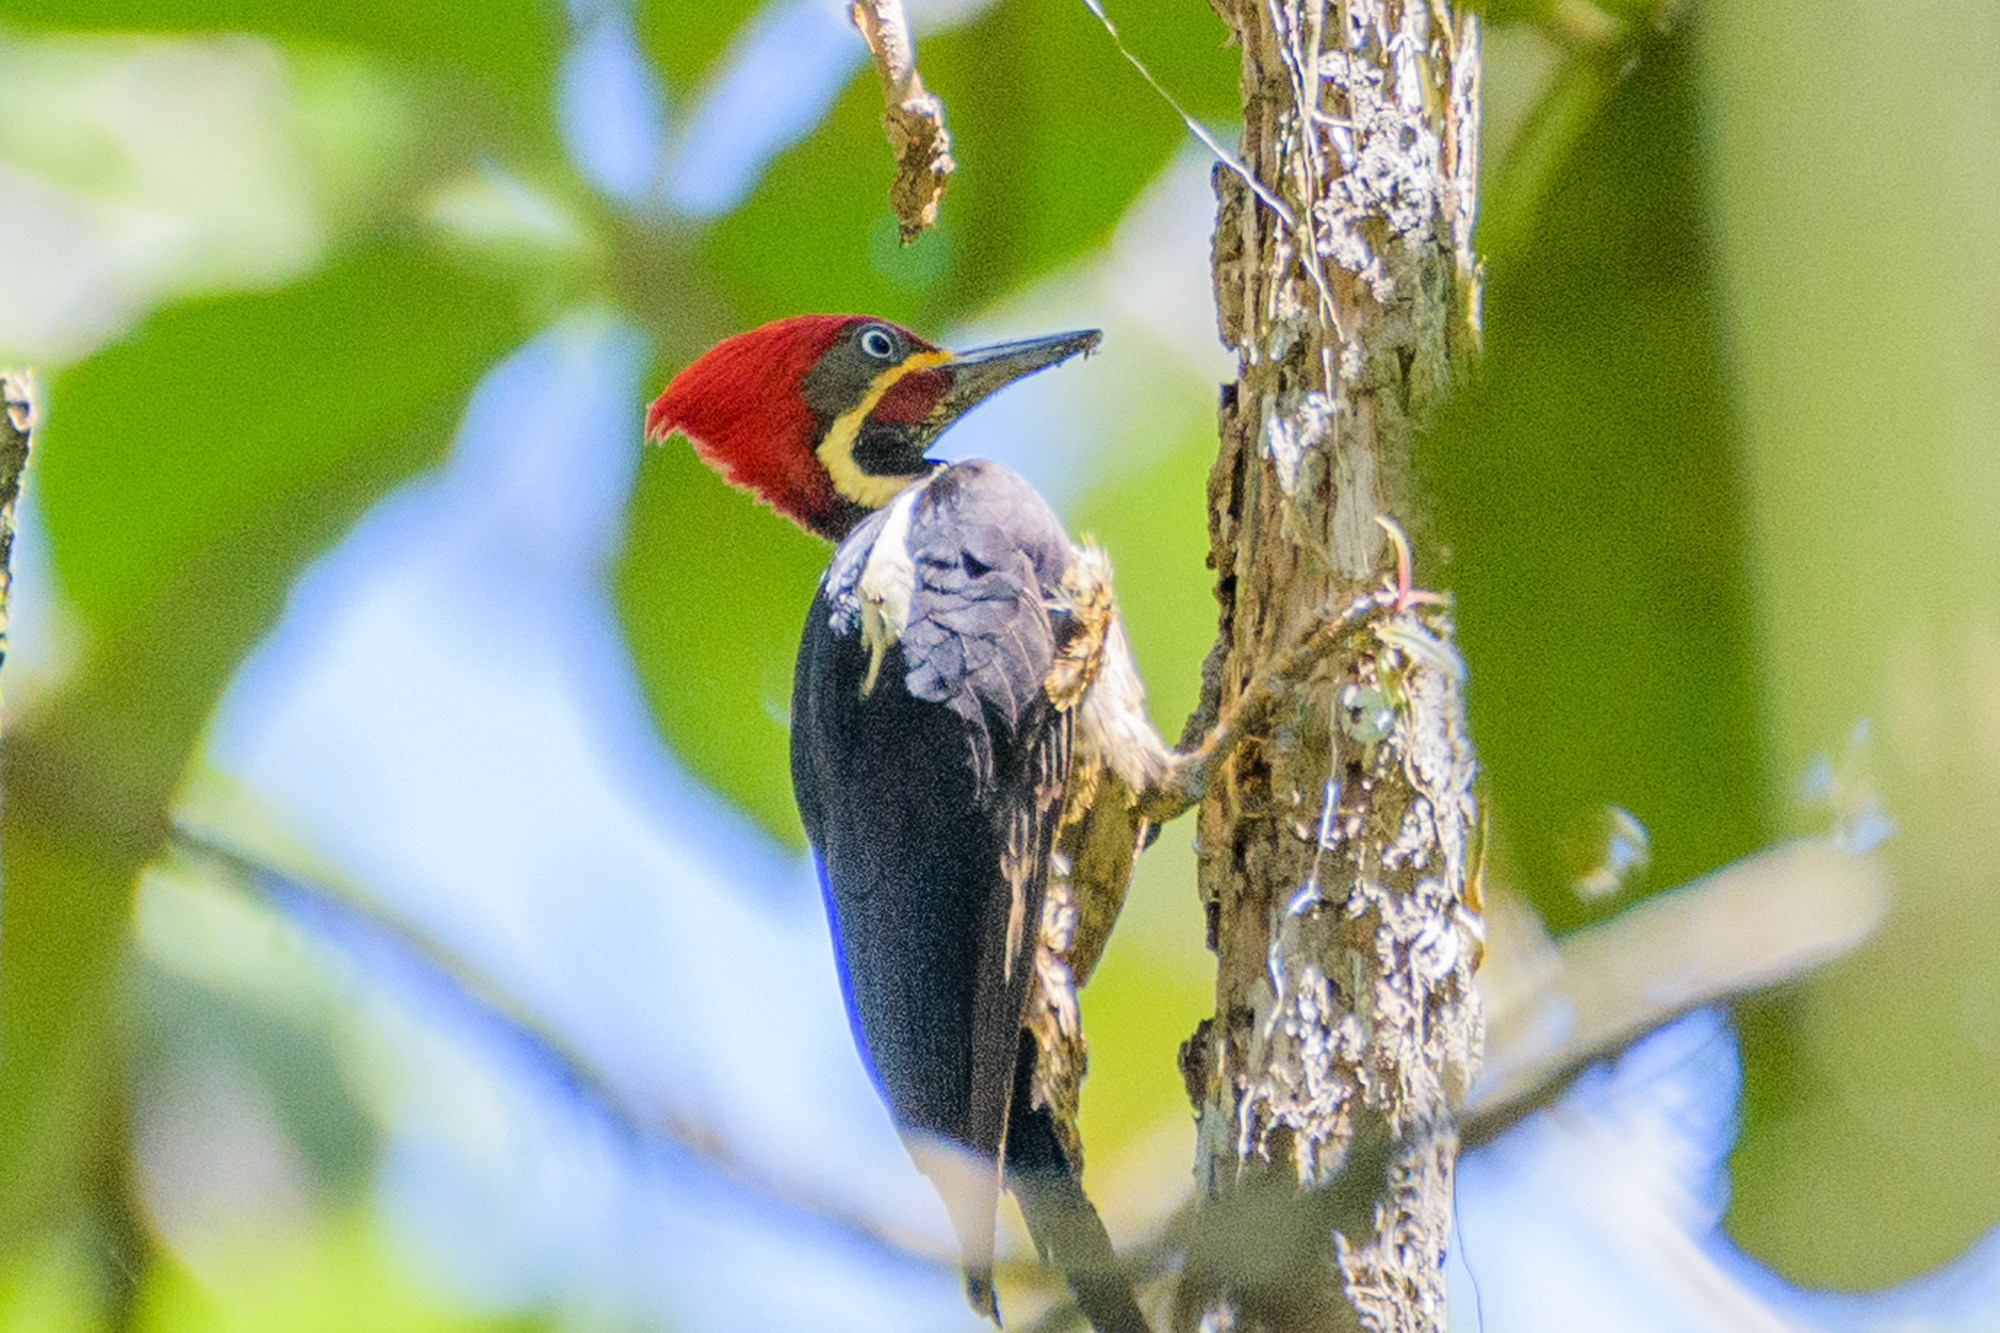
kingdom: Animalia
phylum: Chordata
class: Aves
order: Piciformes
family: Picidae
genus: Dryocopus
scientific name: Dryocopus lineatus
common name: Lineated woodpecker
